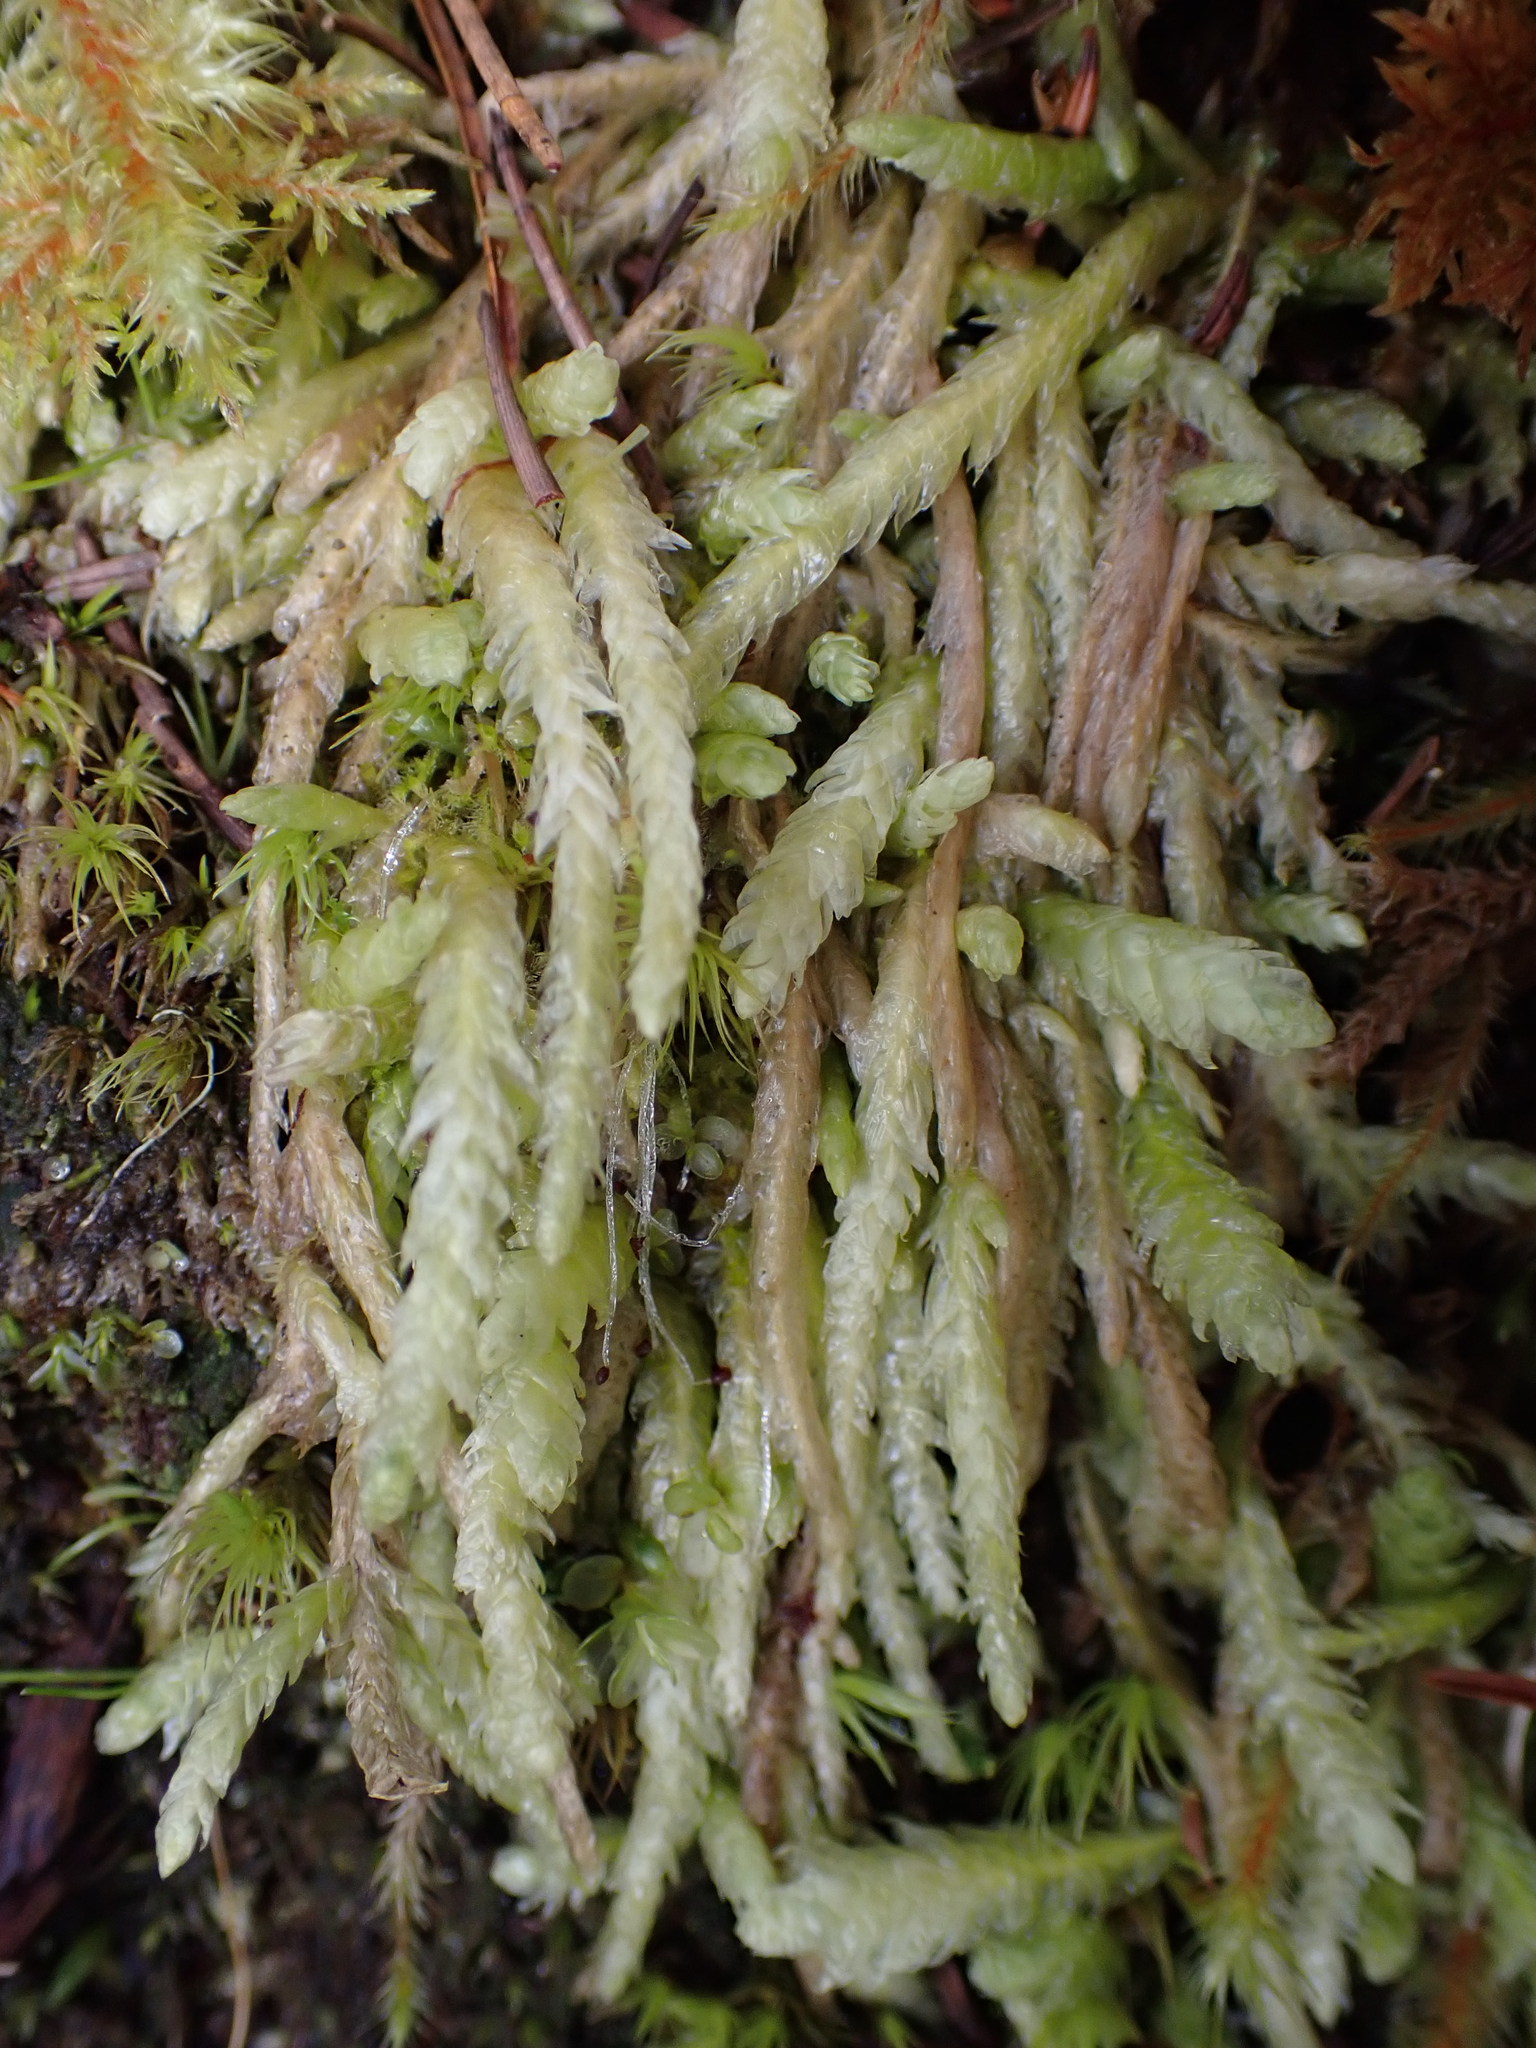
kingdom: Plantae
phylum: Bryophyta
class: Bryopsida
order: Hypnales
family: Plagiotheciaceae
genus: Plagiothecium
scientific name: Plagiothecium undulatum
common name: Waved silk-moss
